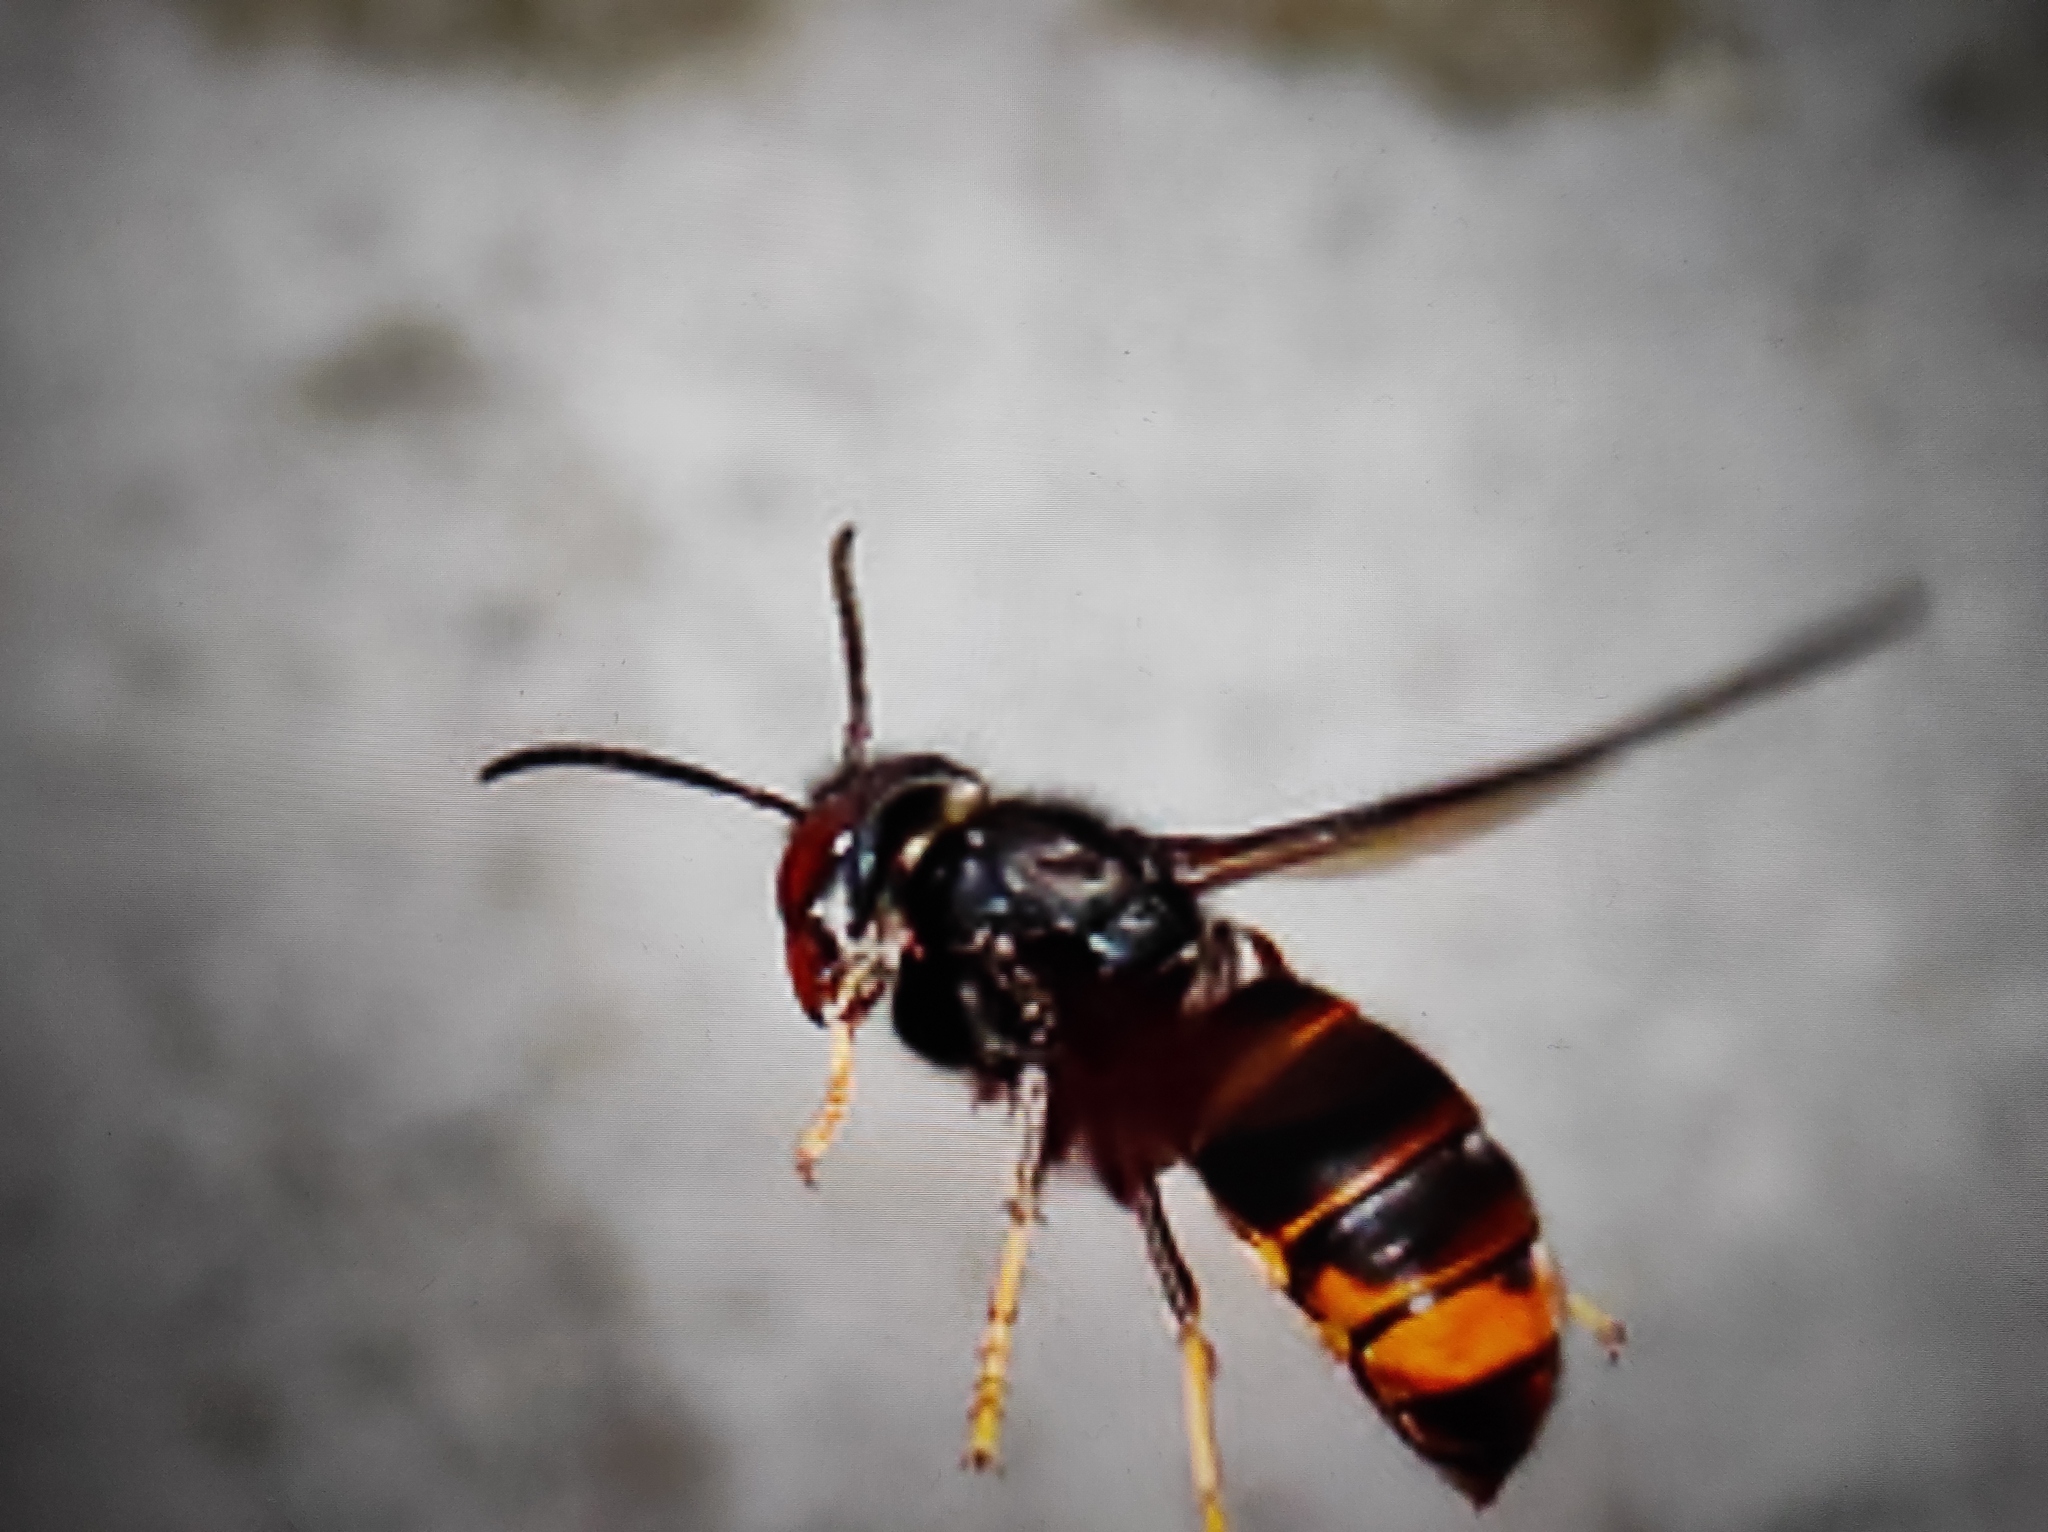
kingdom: Animalia
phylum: Arthropoda
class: Insecta
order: Hymenoptera
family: Vespidae
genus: Vespa
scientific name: Vespa velutina
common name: Asian hornet
